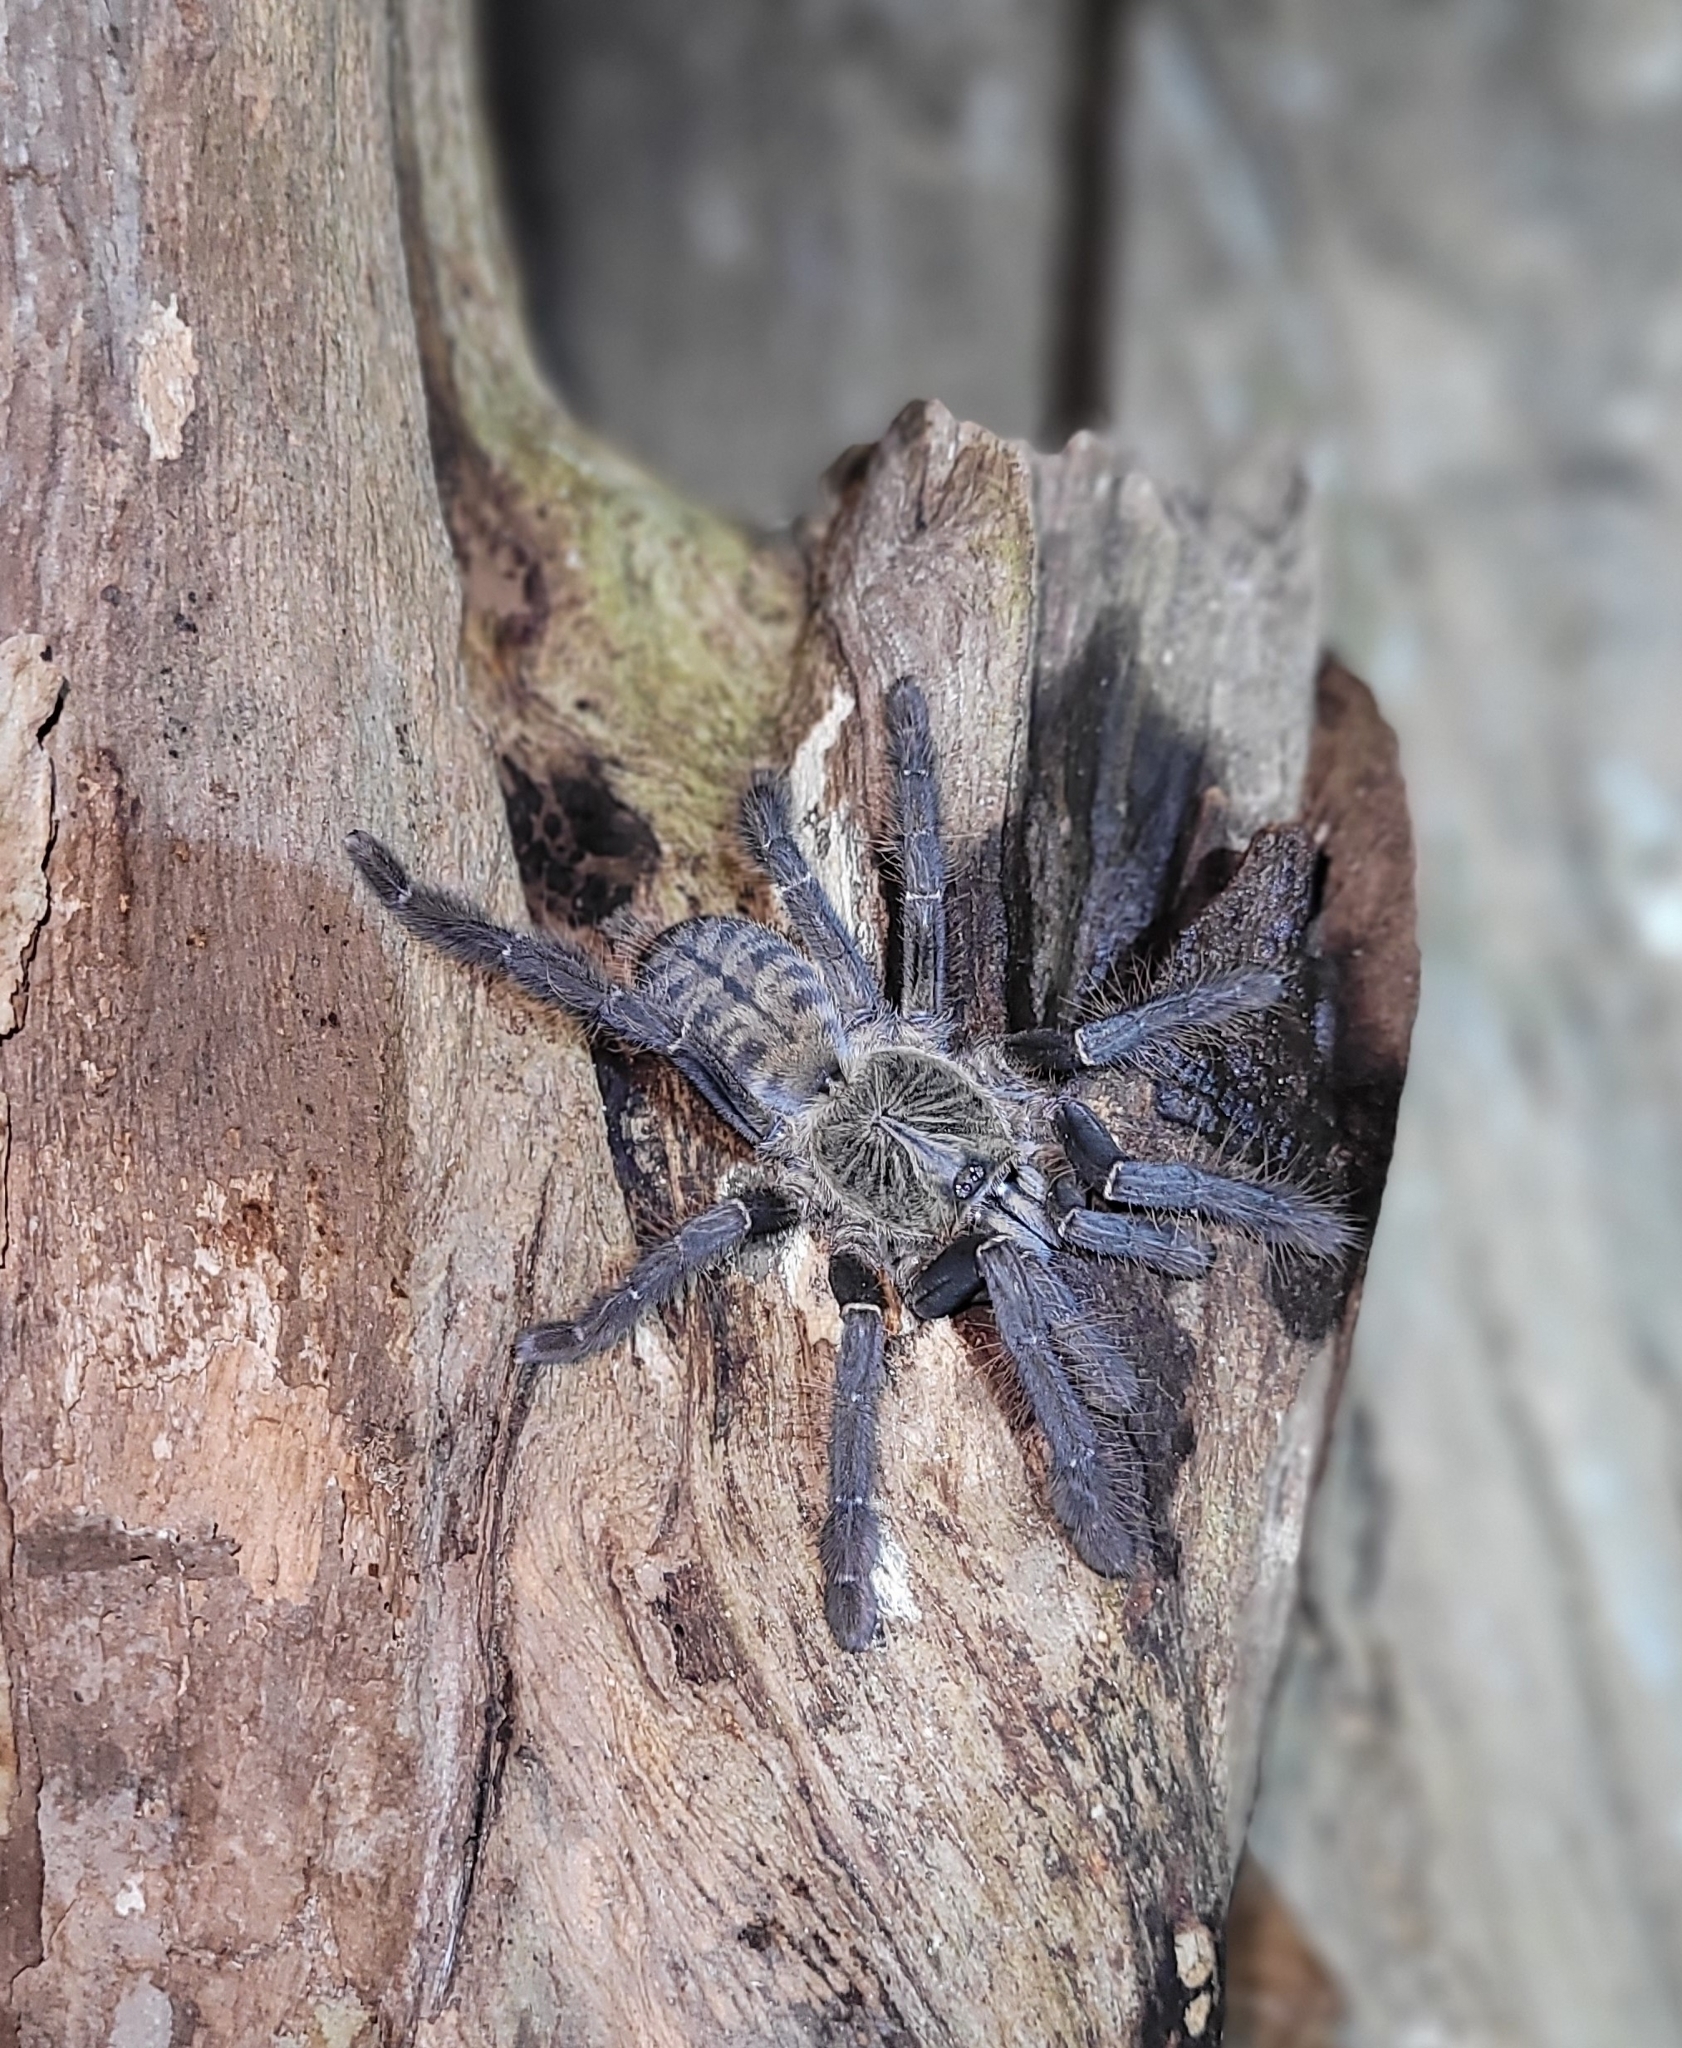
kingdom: Animalia
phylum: Arthropoda
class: Arachnida
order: Araneae
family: Theraphosidae
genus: Lampropelma
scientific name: Lampropelma carpenteri
